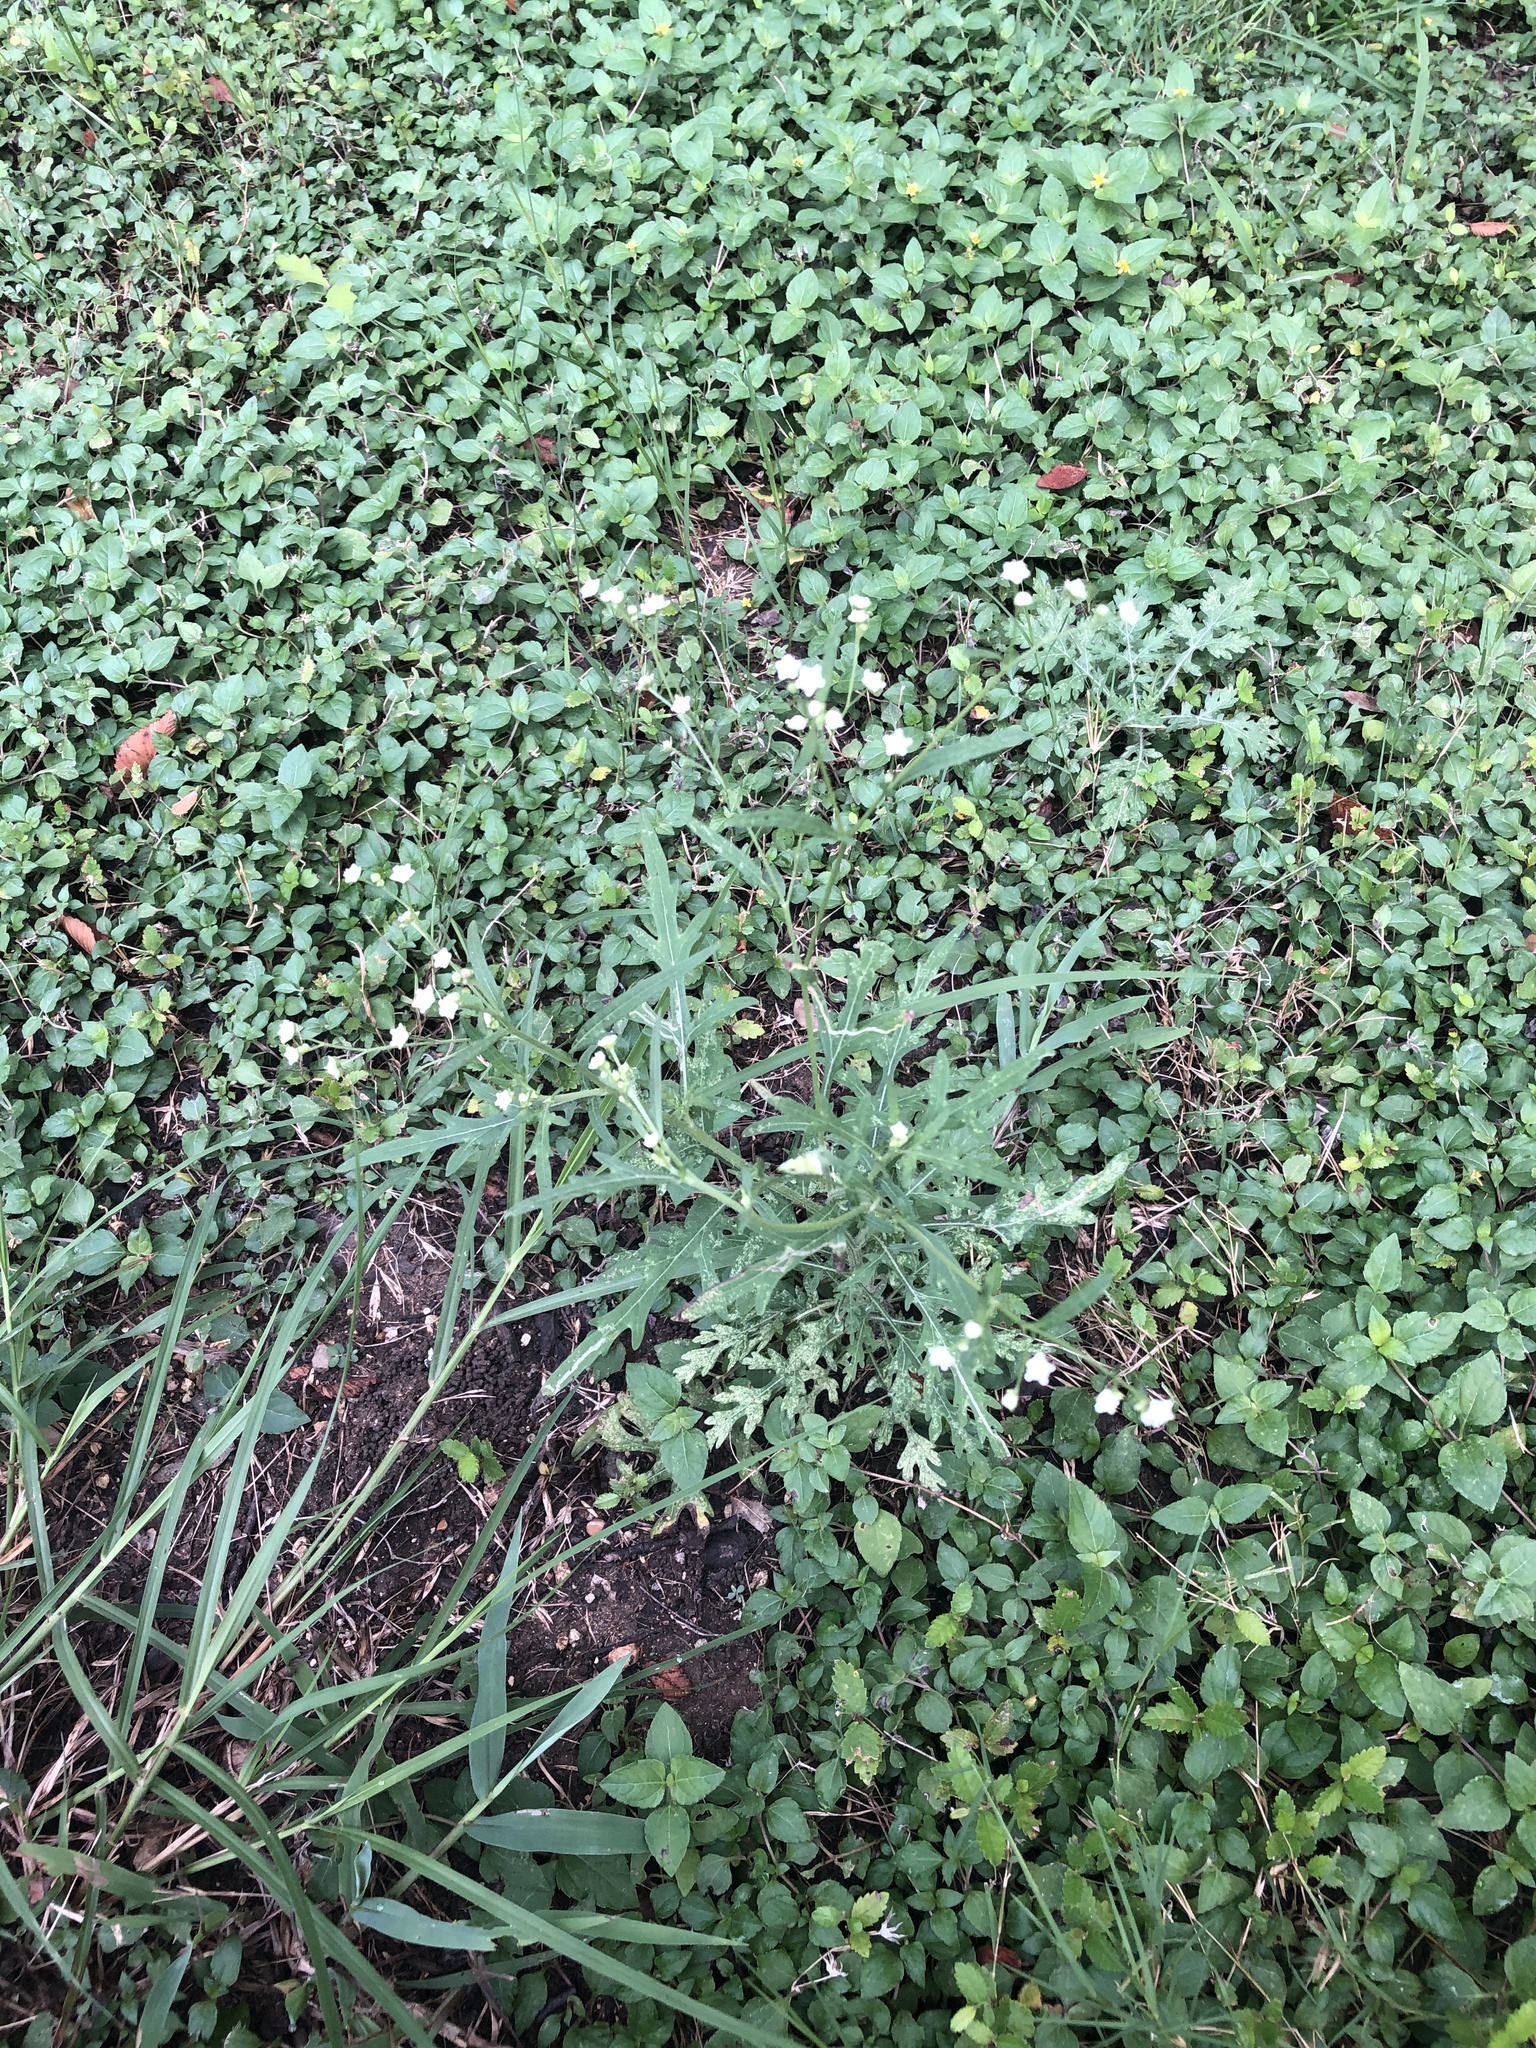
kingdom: Plantae
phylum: Tracheophyta
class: Magnoliopsida
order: Asterales
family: Asteraceae
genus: Parthenium
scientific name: Parthenium hysterophorus
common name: Santa maria feverfew
